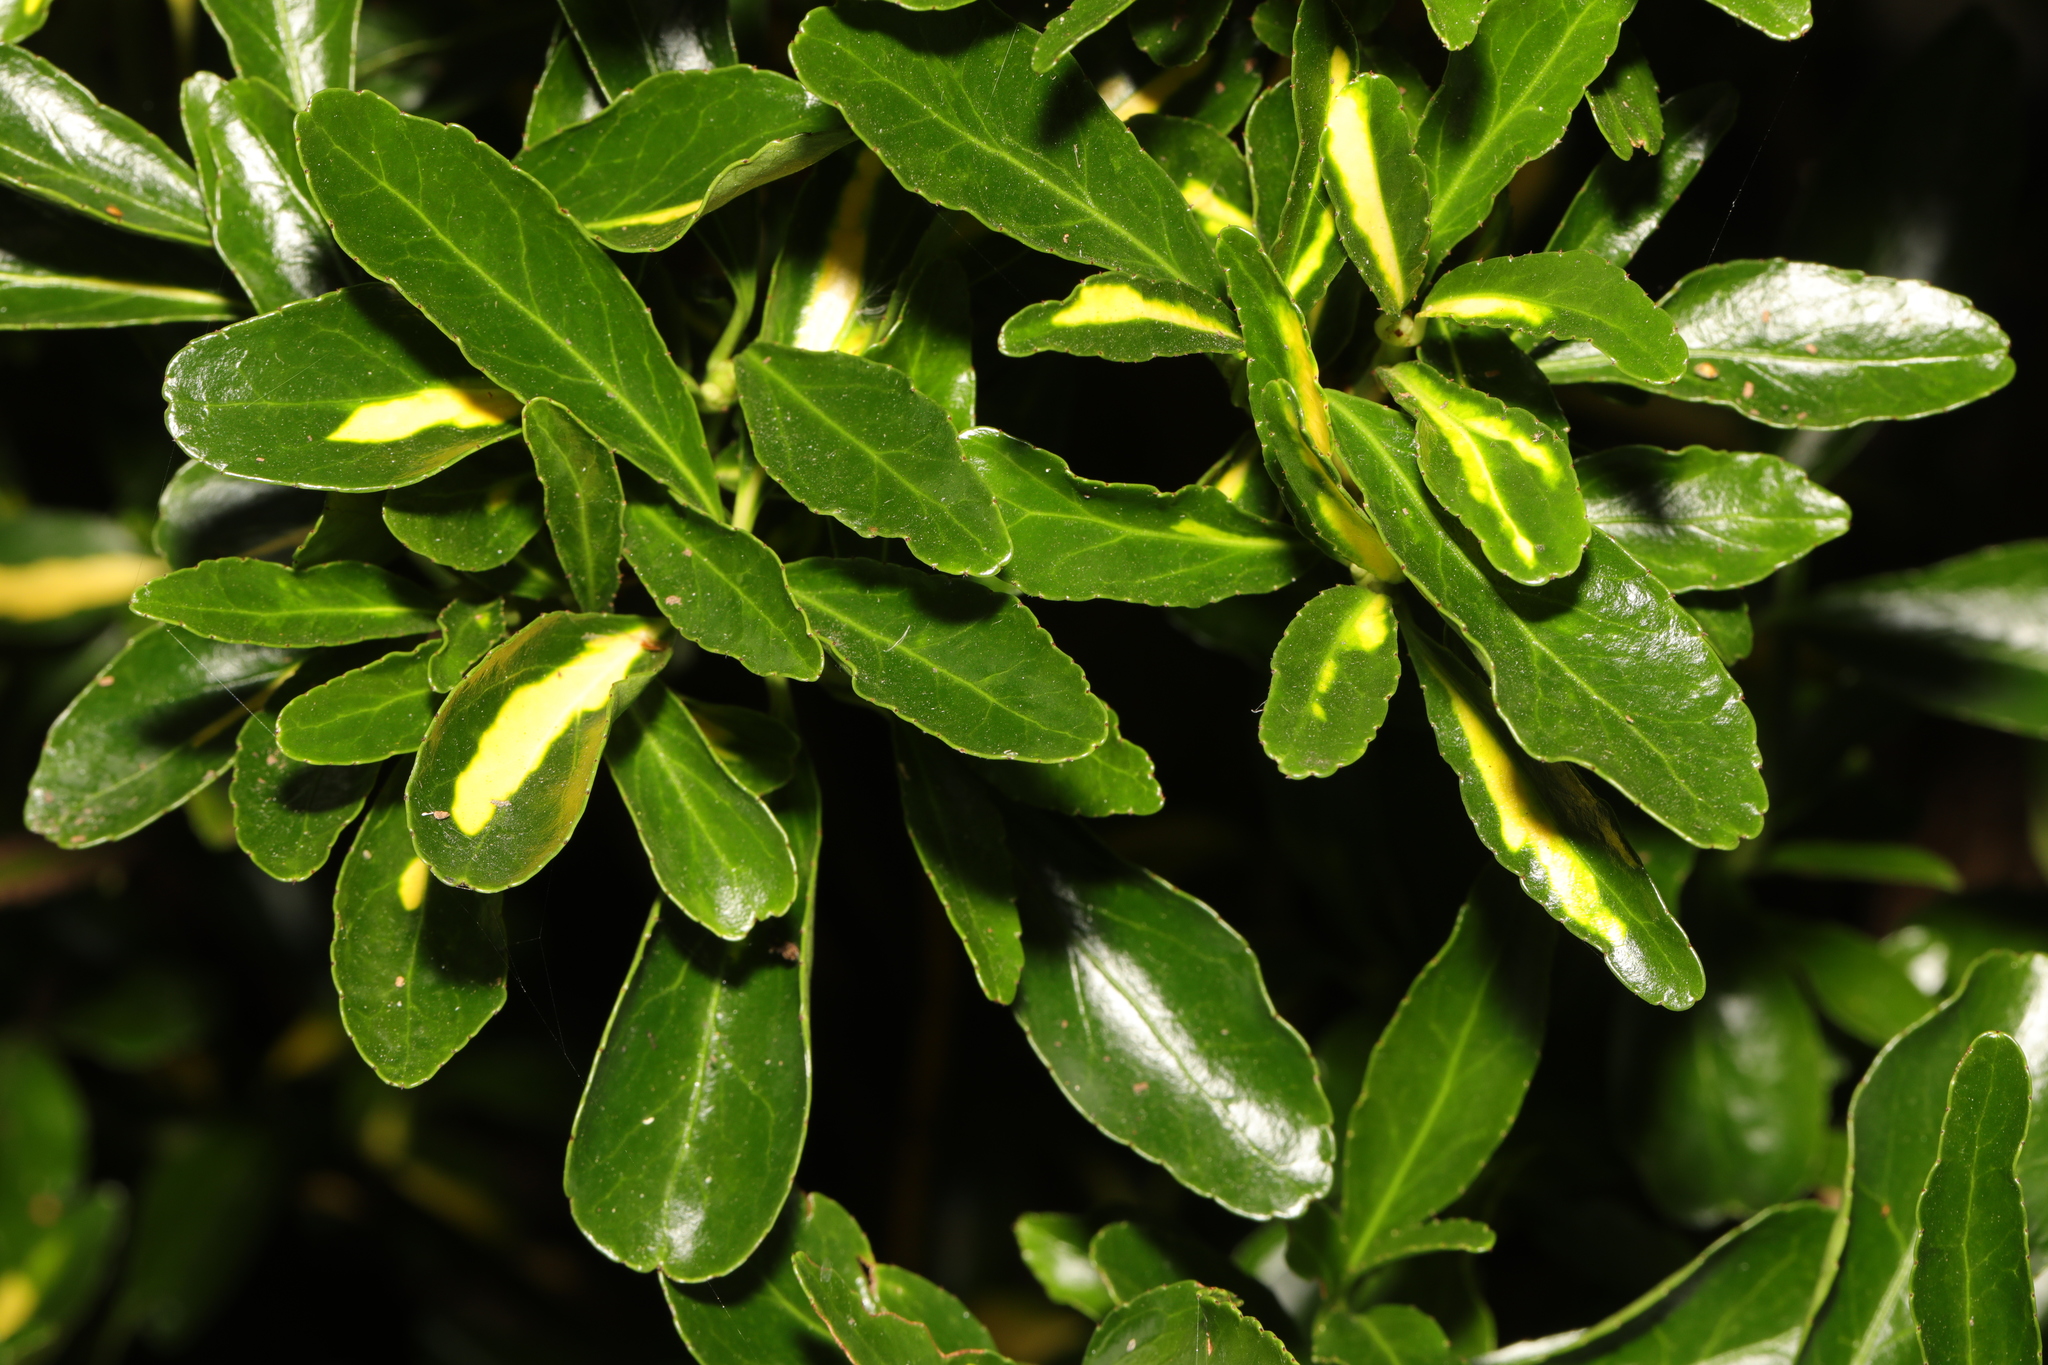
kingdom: Plantae
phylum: Tracheophyta
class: Magnoliopsida
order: Celastrales
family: Celastraceae
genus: Euonymus
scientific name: Euonymus japonicus
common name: Japanese spindletree
